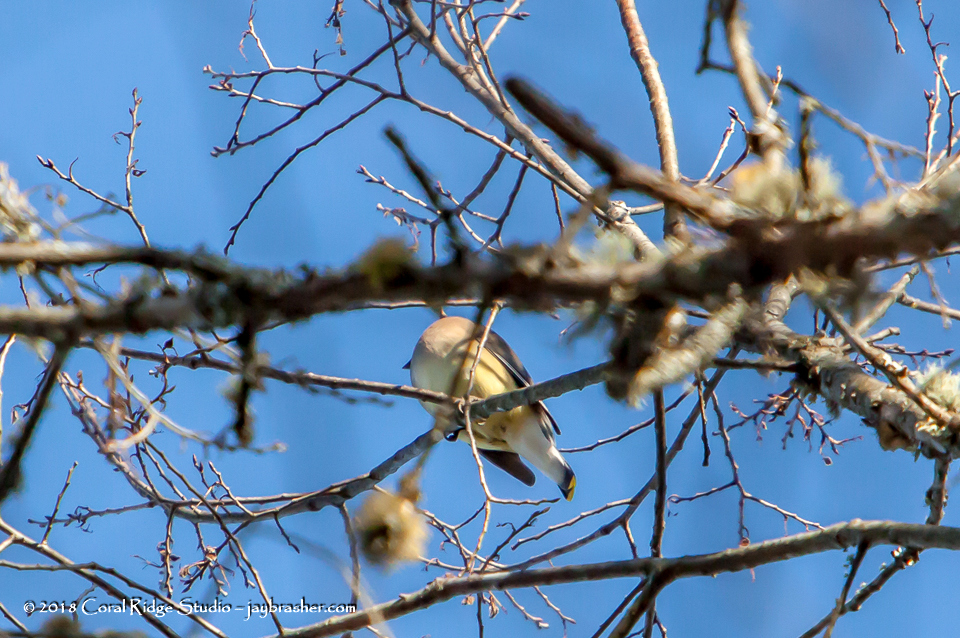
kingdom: Animalia
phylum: Chordata
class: Aves
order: Passeriformes
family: Bombycillidae
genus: Bombycilla
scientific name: Bombycilla cedrorum
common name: Cedar waxwing
